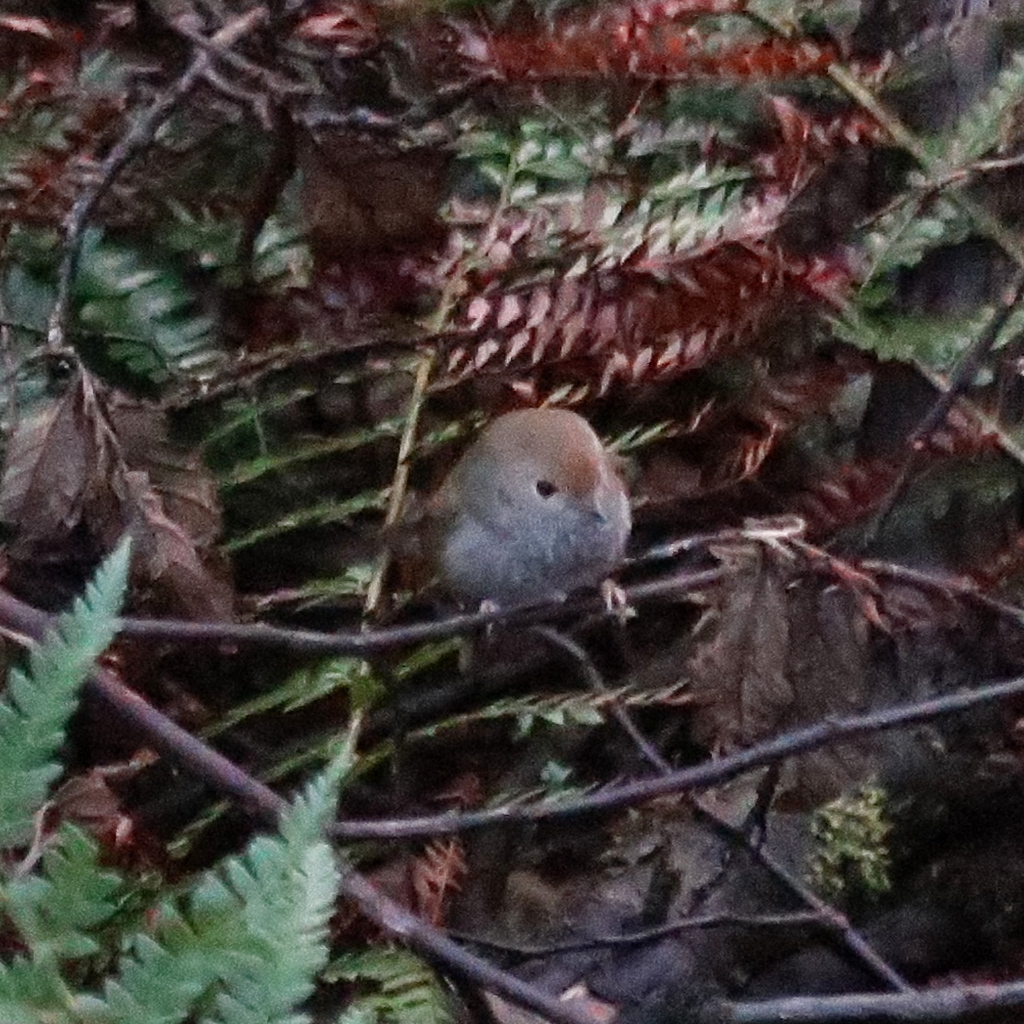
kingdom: Animalia
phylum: Chordata
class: Aves
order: Passeriformes
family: Acanthizidae
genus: Acanthiza
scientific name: Acanthiza ewingii
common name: Tasmanian thornbill
